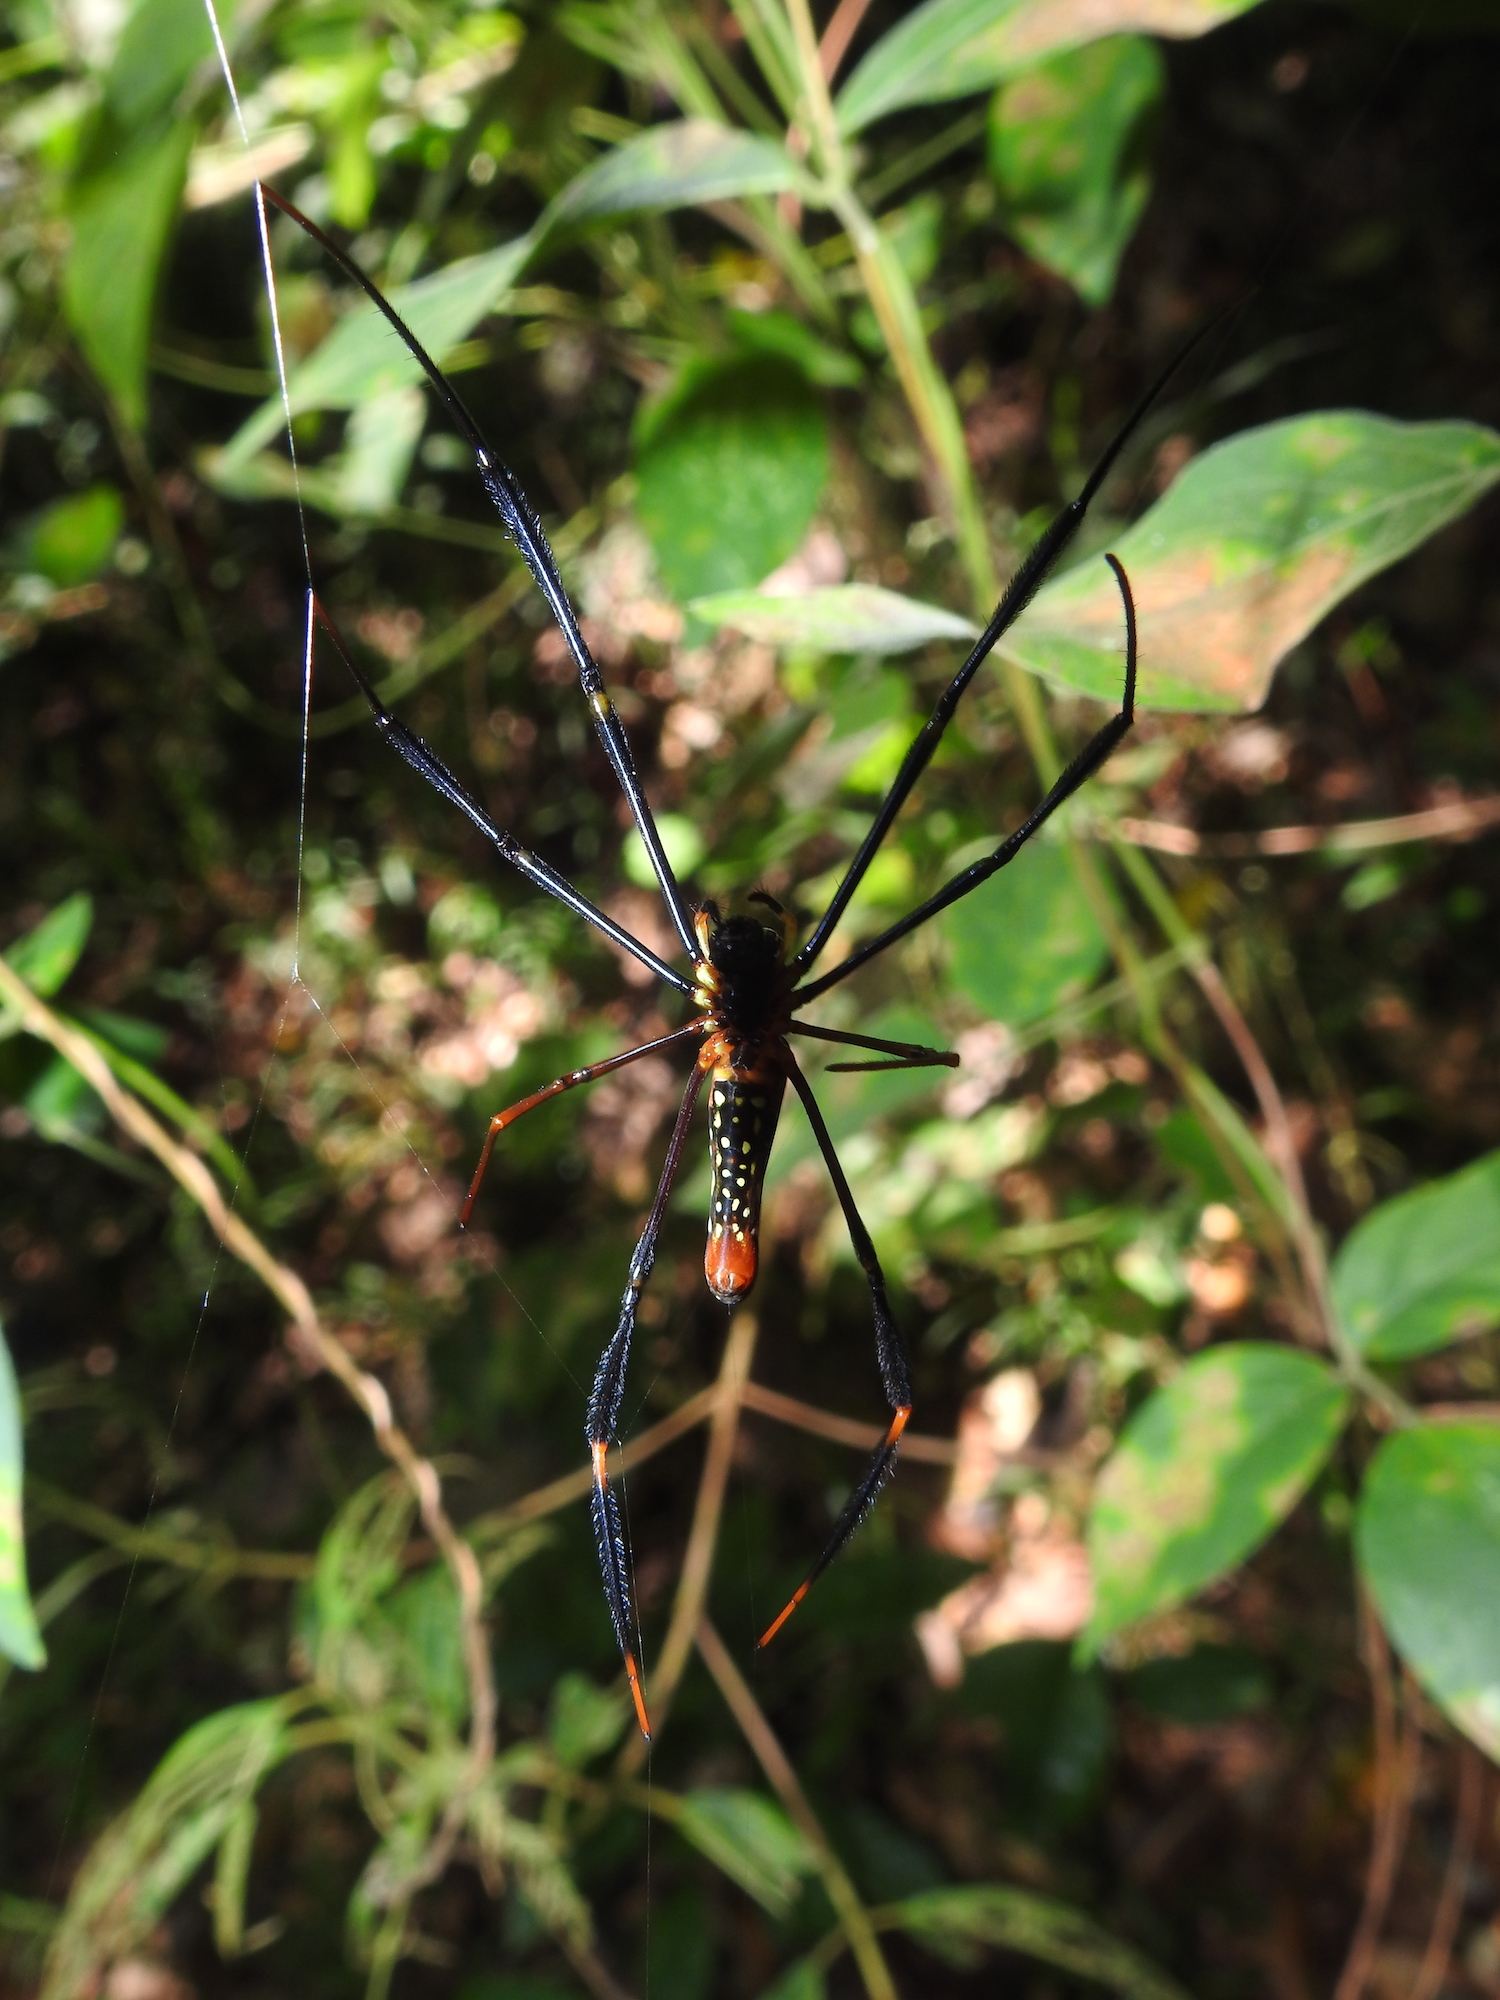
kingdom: Animalia
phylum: Arthropoda
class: Arachnida
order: Araneae
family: Araneidae
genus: Nephila
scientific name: Nephila pilipes
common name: Giant golden orb weaver
